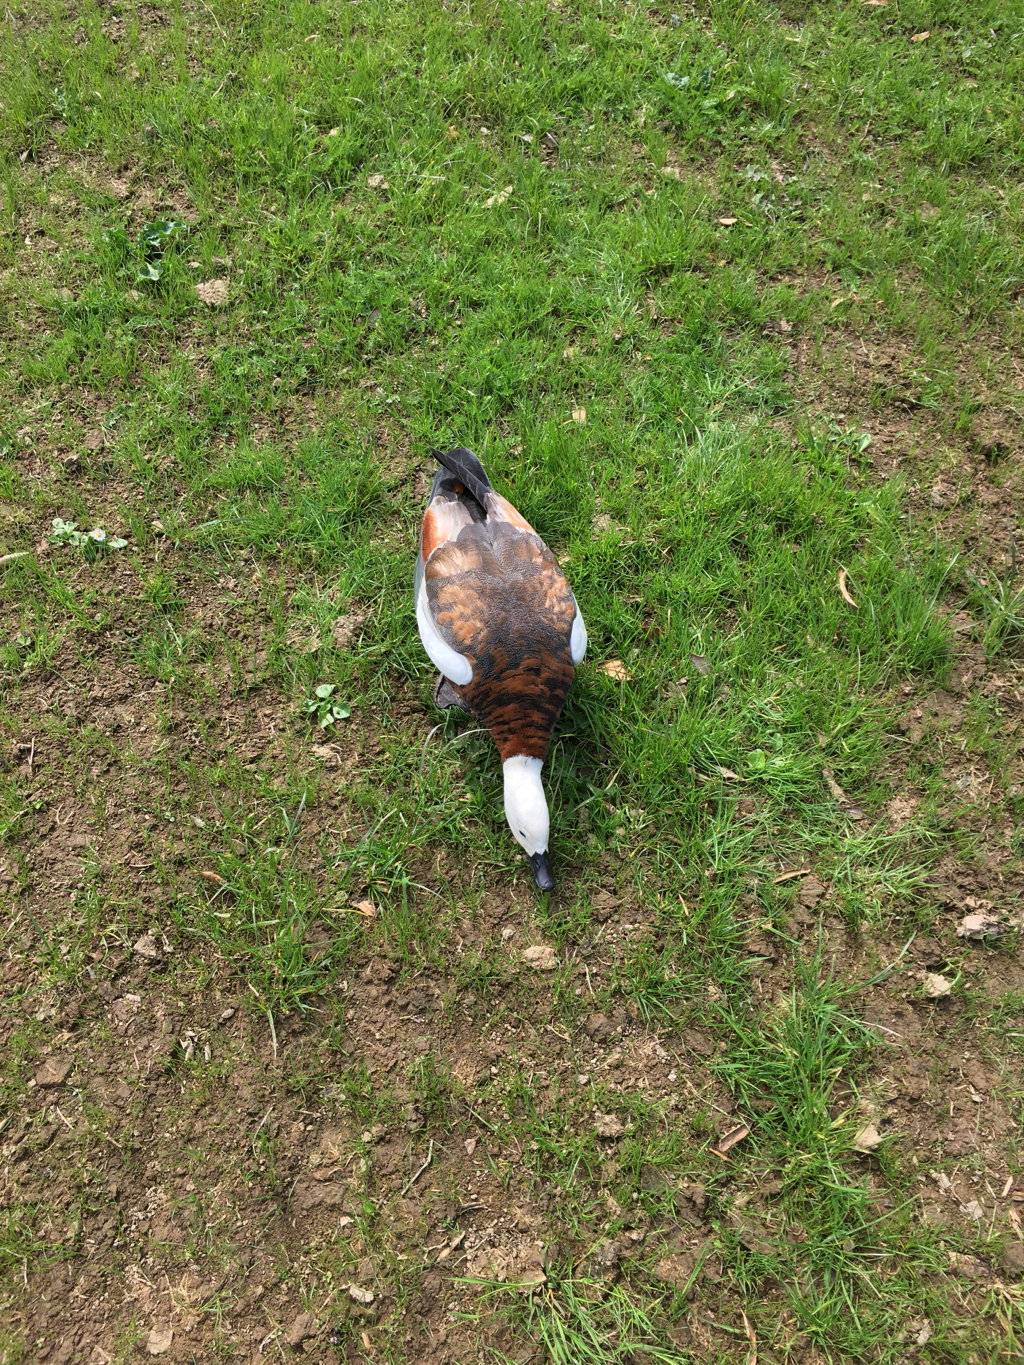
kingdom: Animalia
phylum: Chordata
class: Aves
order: Anseriformes
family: Anatidae
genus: Tadorna
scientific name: Tadorna variegata
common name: Paradise shelduck
